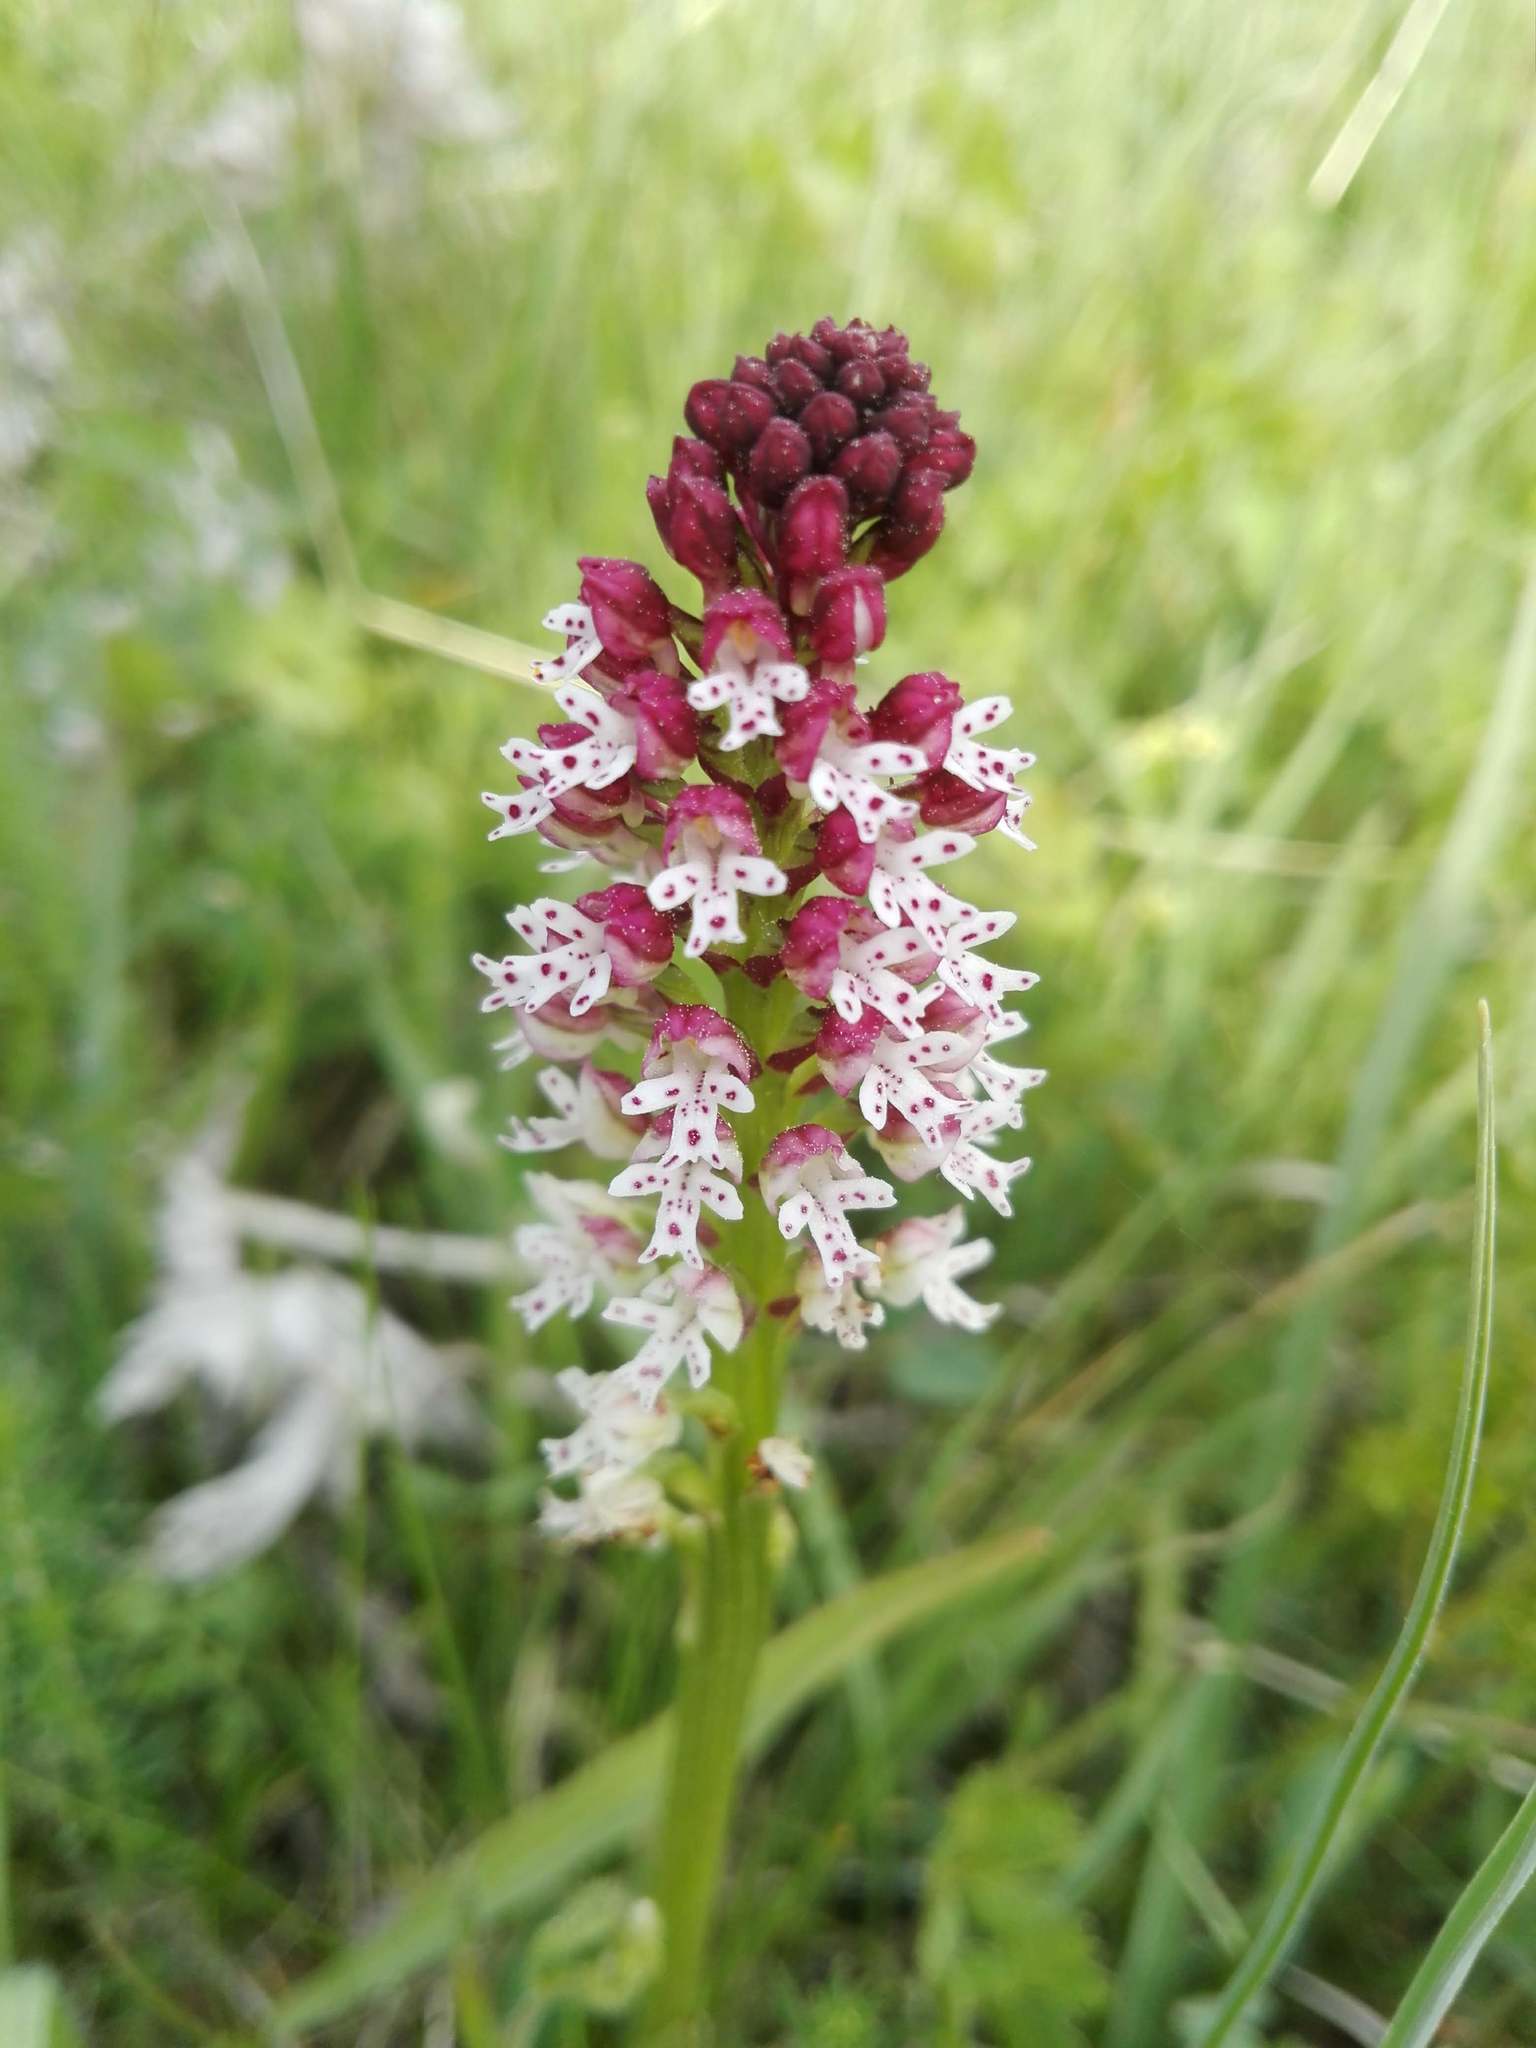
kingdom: Plantae
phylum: Tracheophyta
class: Liliopsida
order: Asparagales
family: Orchidaceae
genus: Neotinea
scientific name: Neotinea ustulata
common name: Burnt orchid
